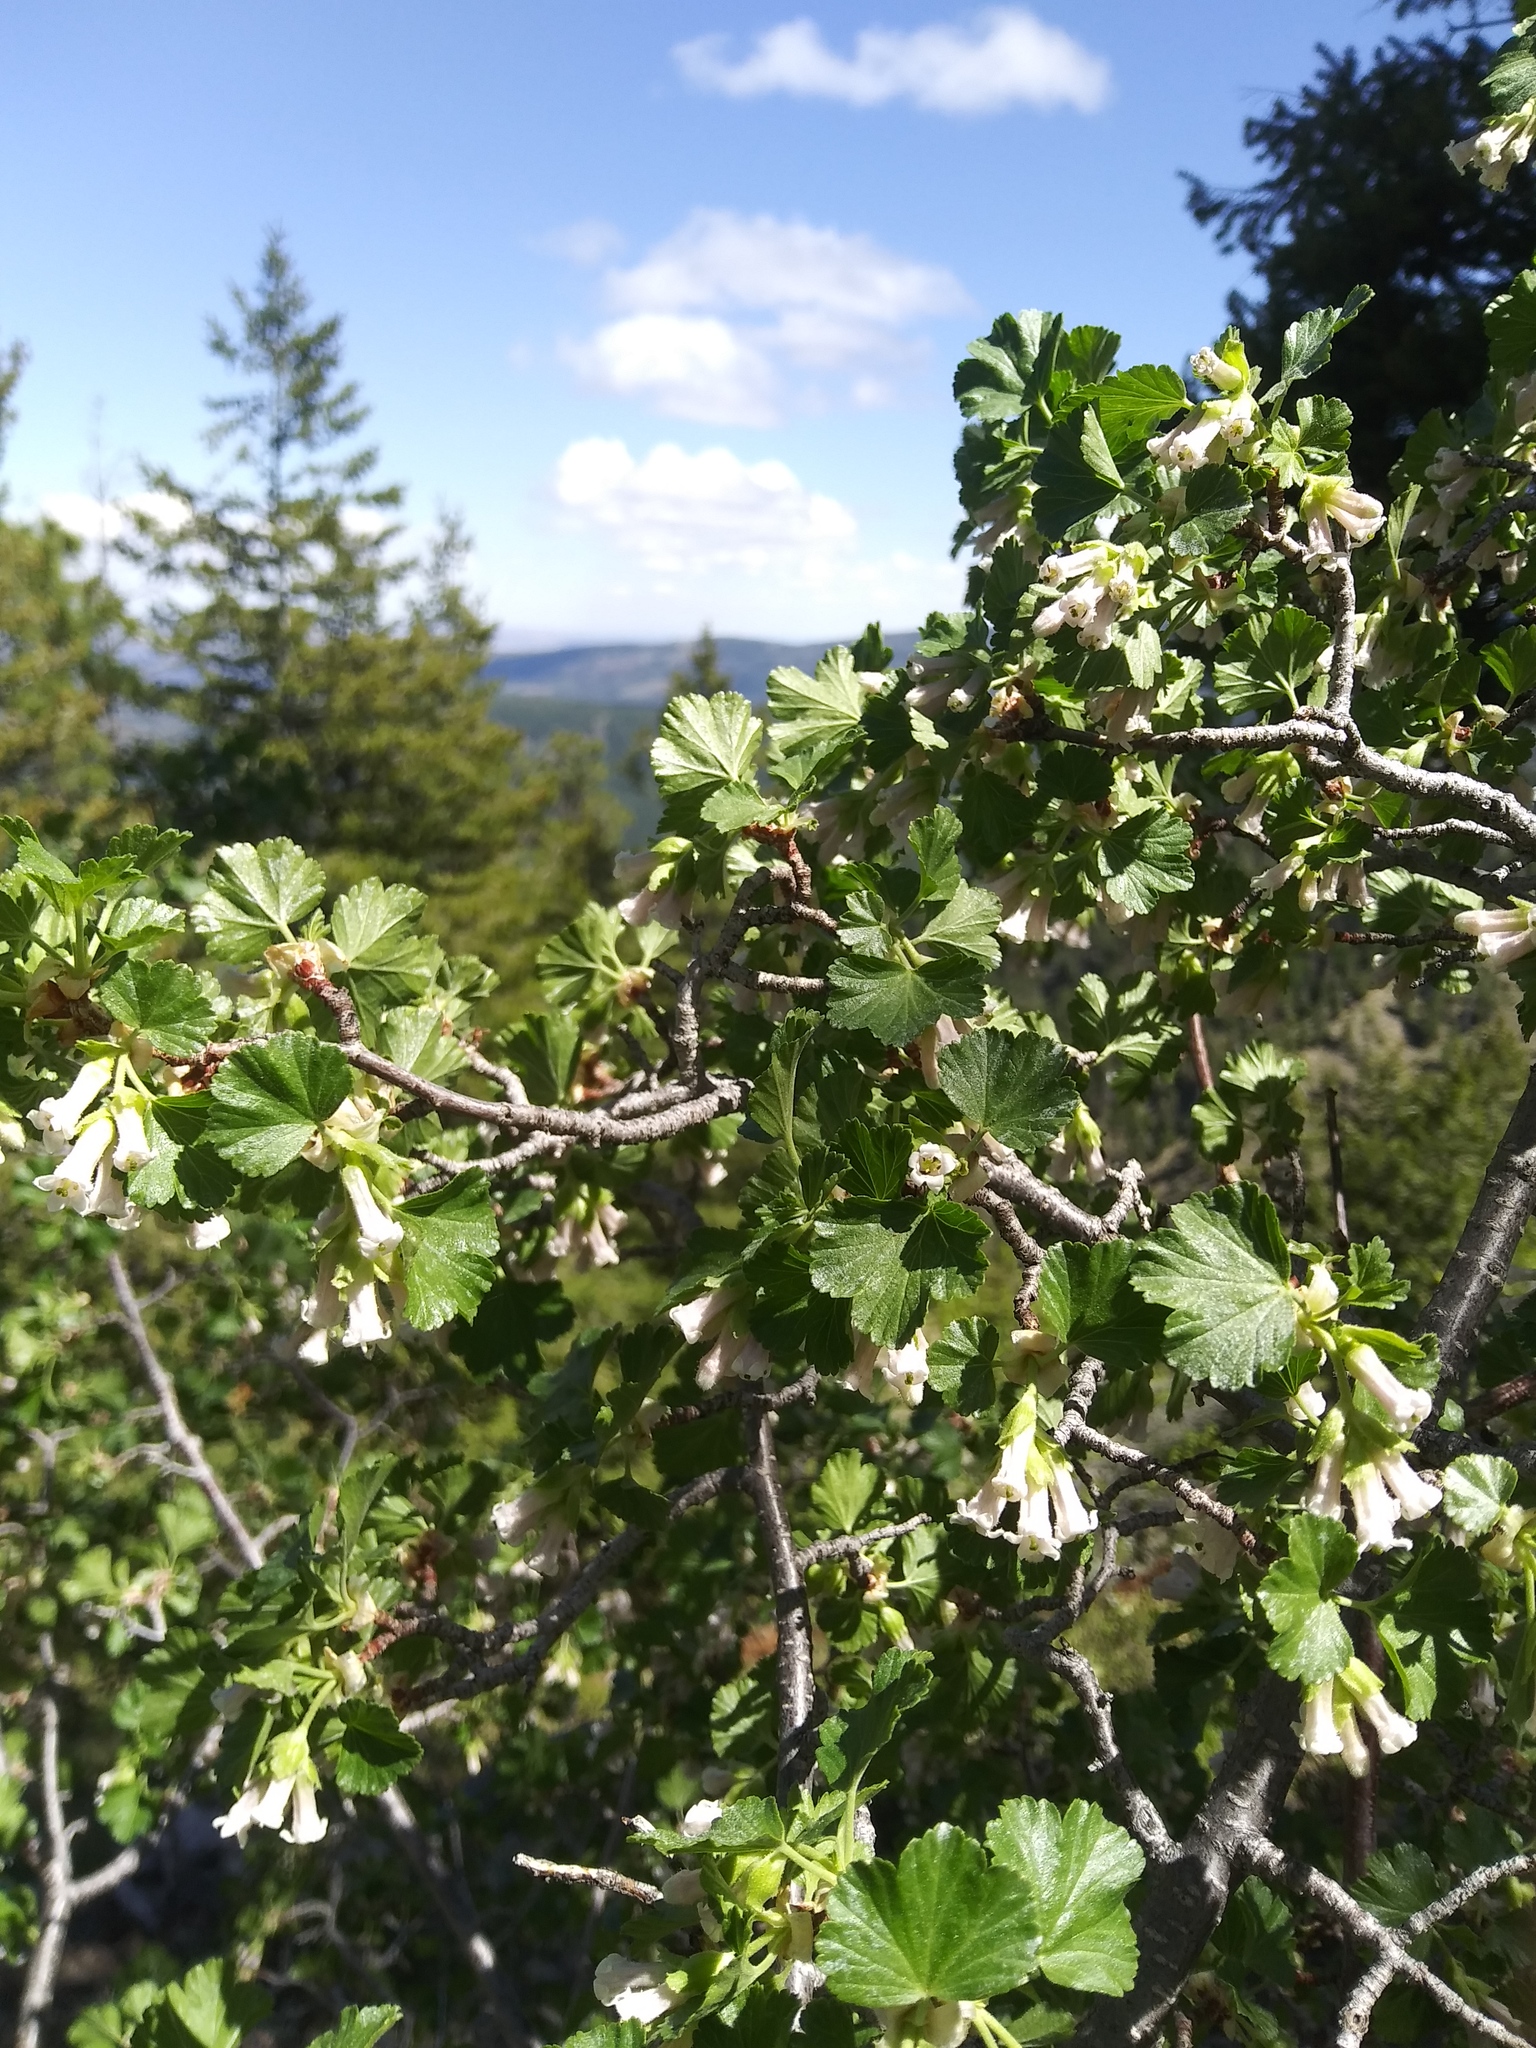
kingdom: Plantae
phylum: Tracheophyta
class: Magnoliopsida
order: Saxifragales
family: Grossulariaceae
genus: Ribes
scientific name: Ribes cereum
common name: Wax currant
